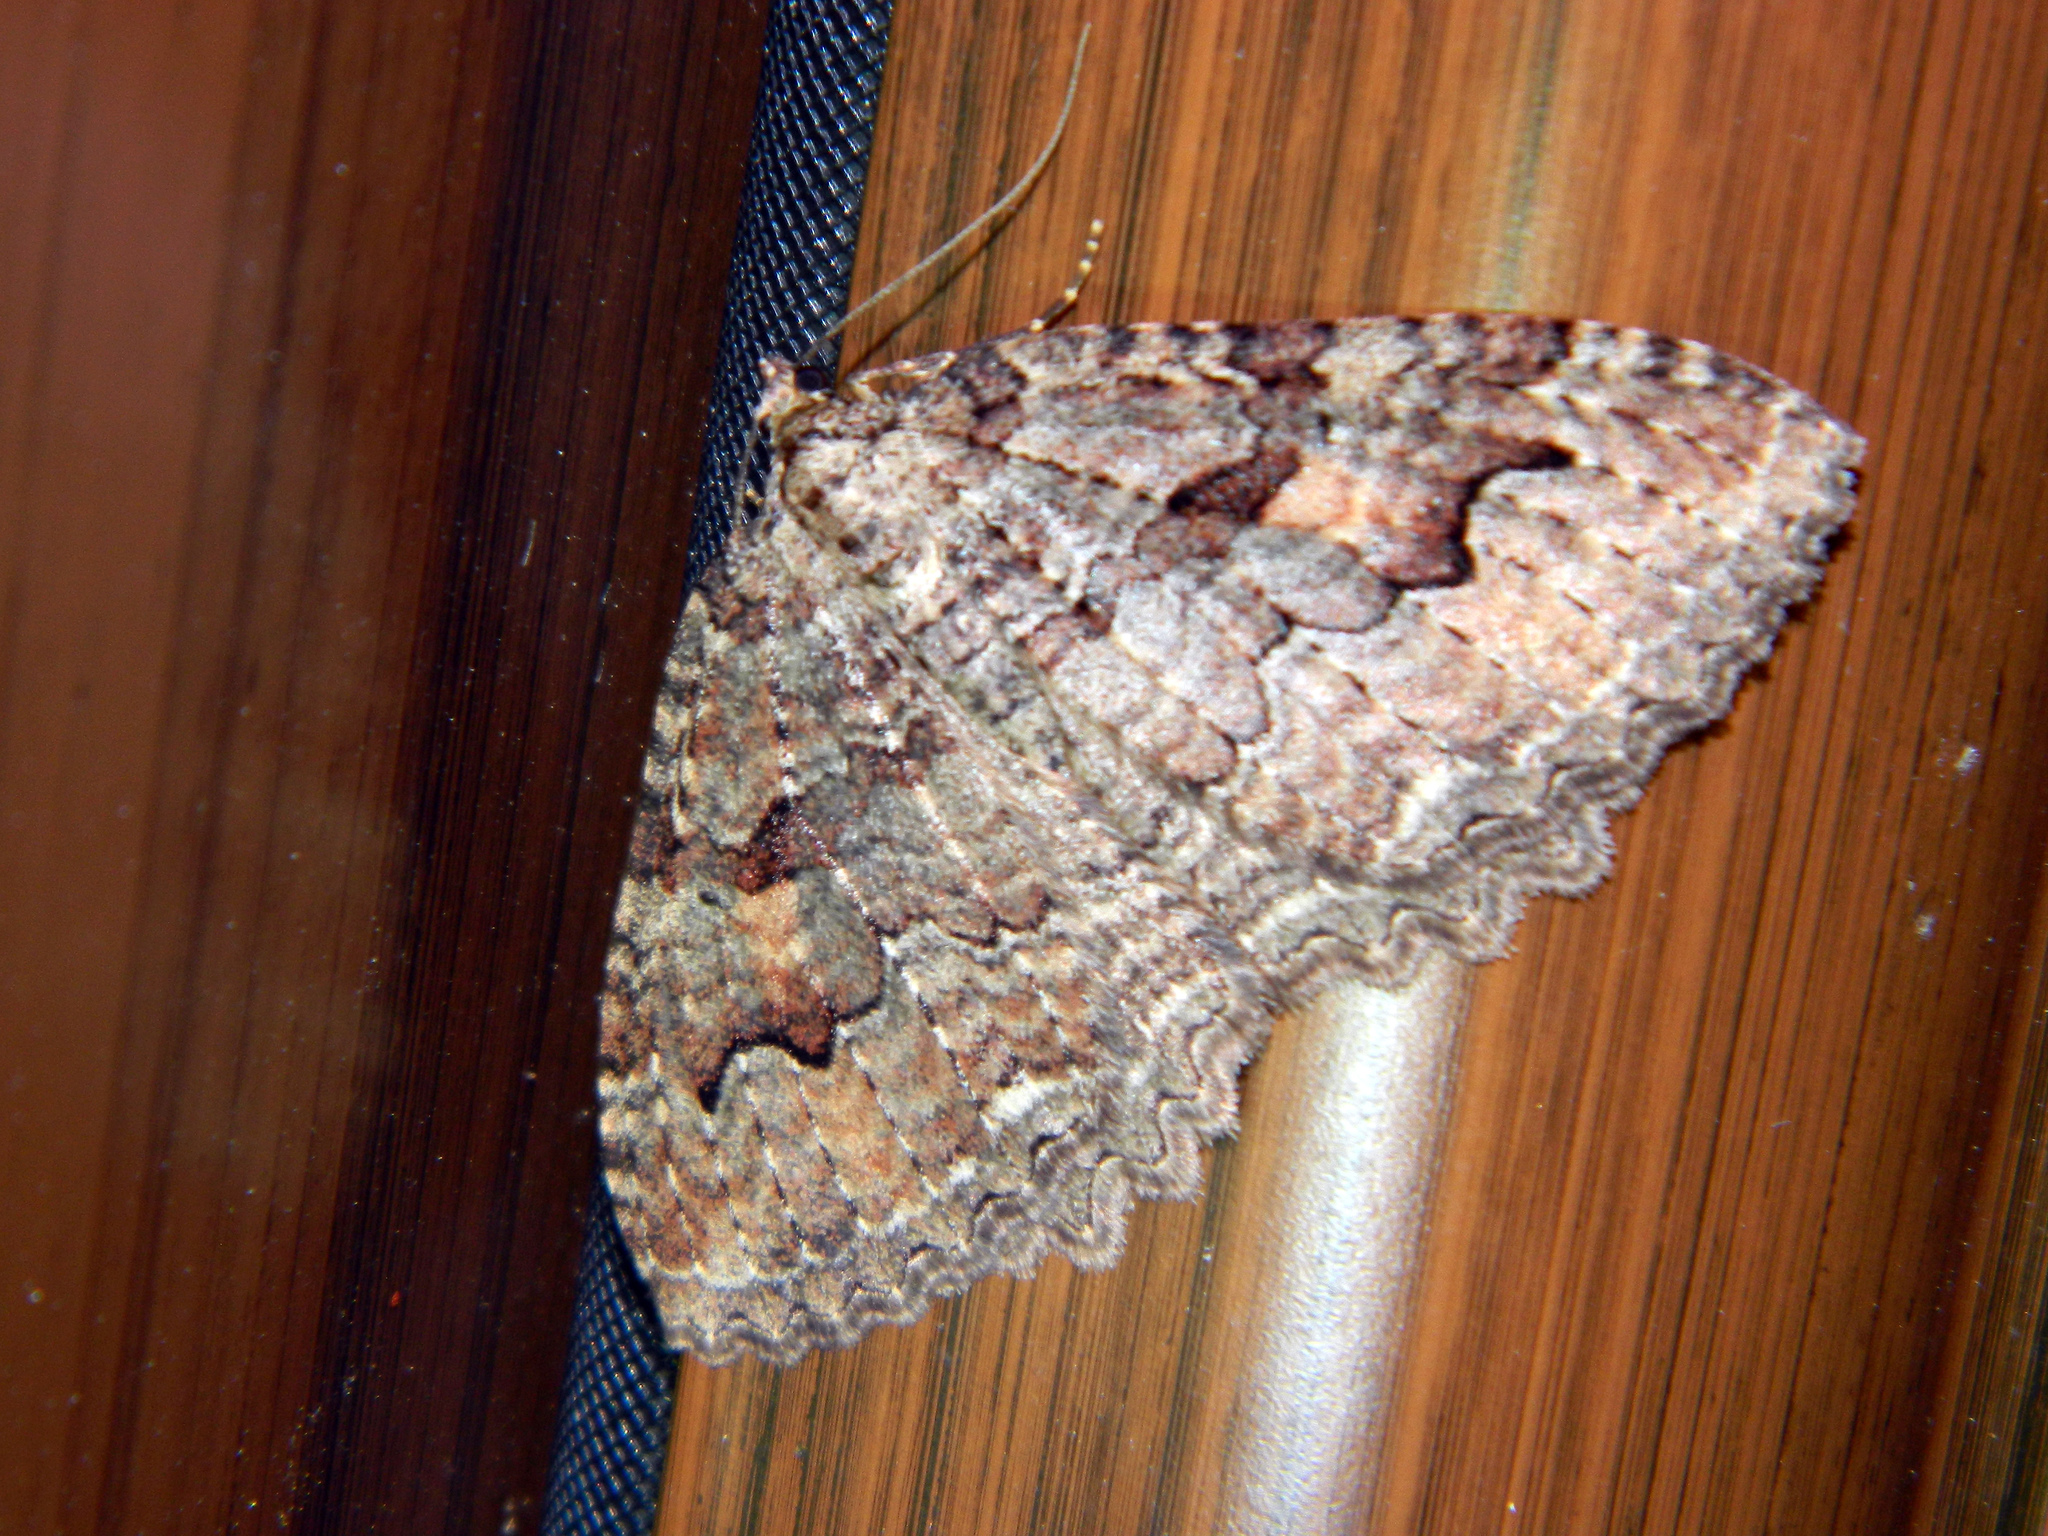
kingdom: Animalia
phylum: Arthropoda
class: Insecta
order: Lepidoptera
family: Geometridae
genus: Triphosa
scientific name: Triphosa haesitata
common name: Tissue moth
